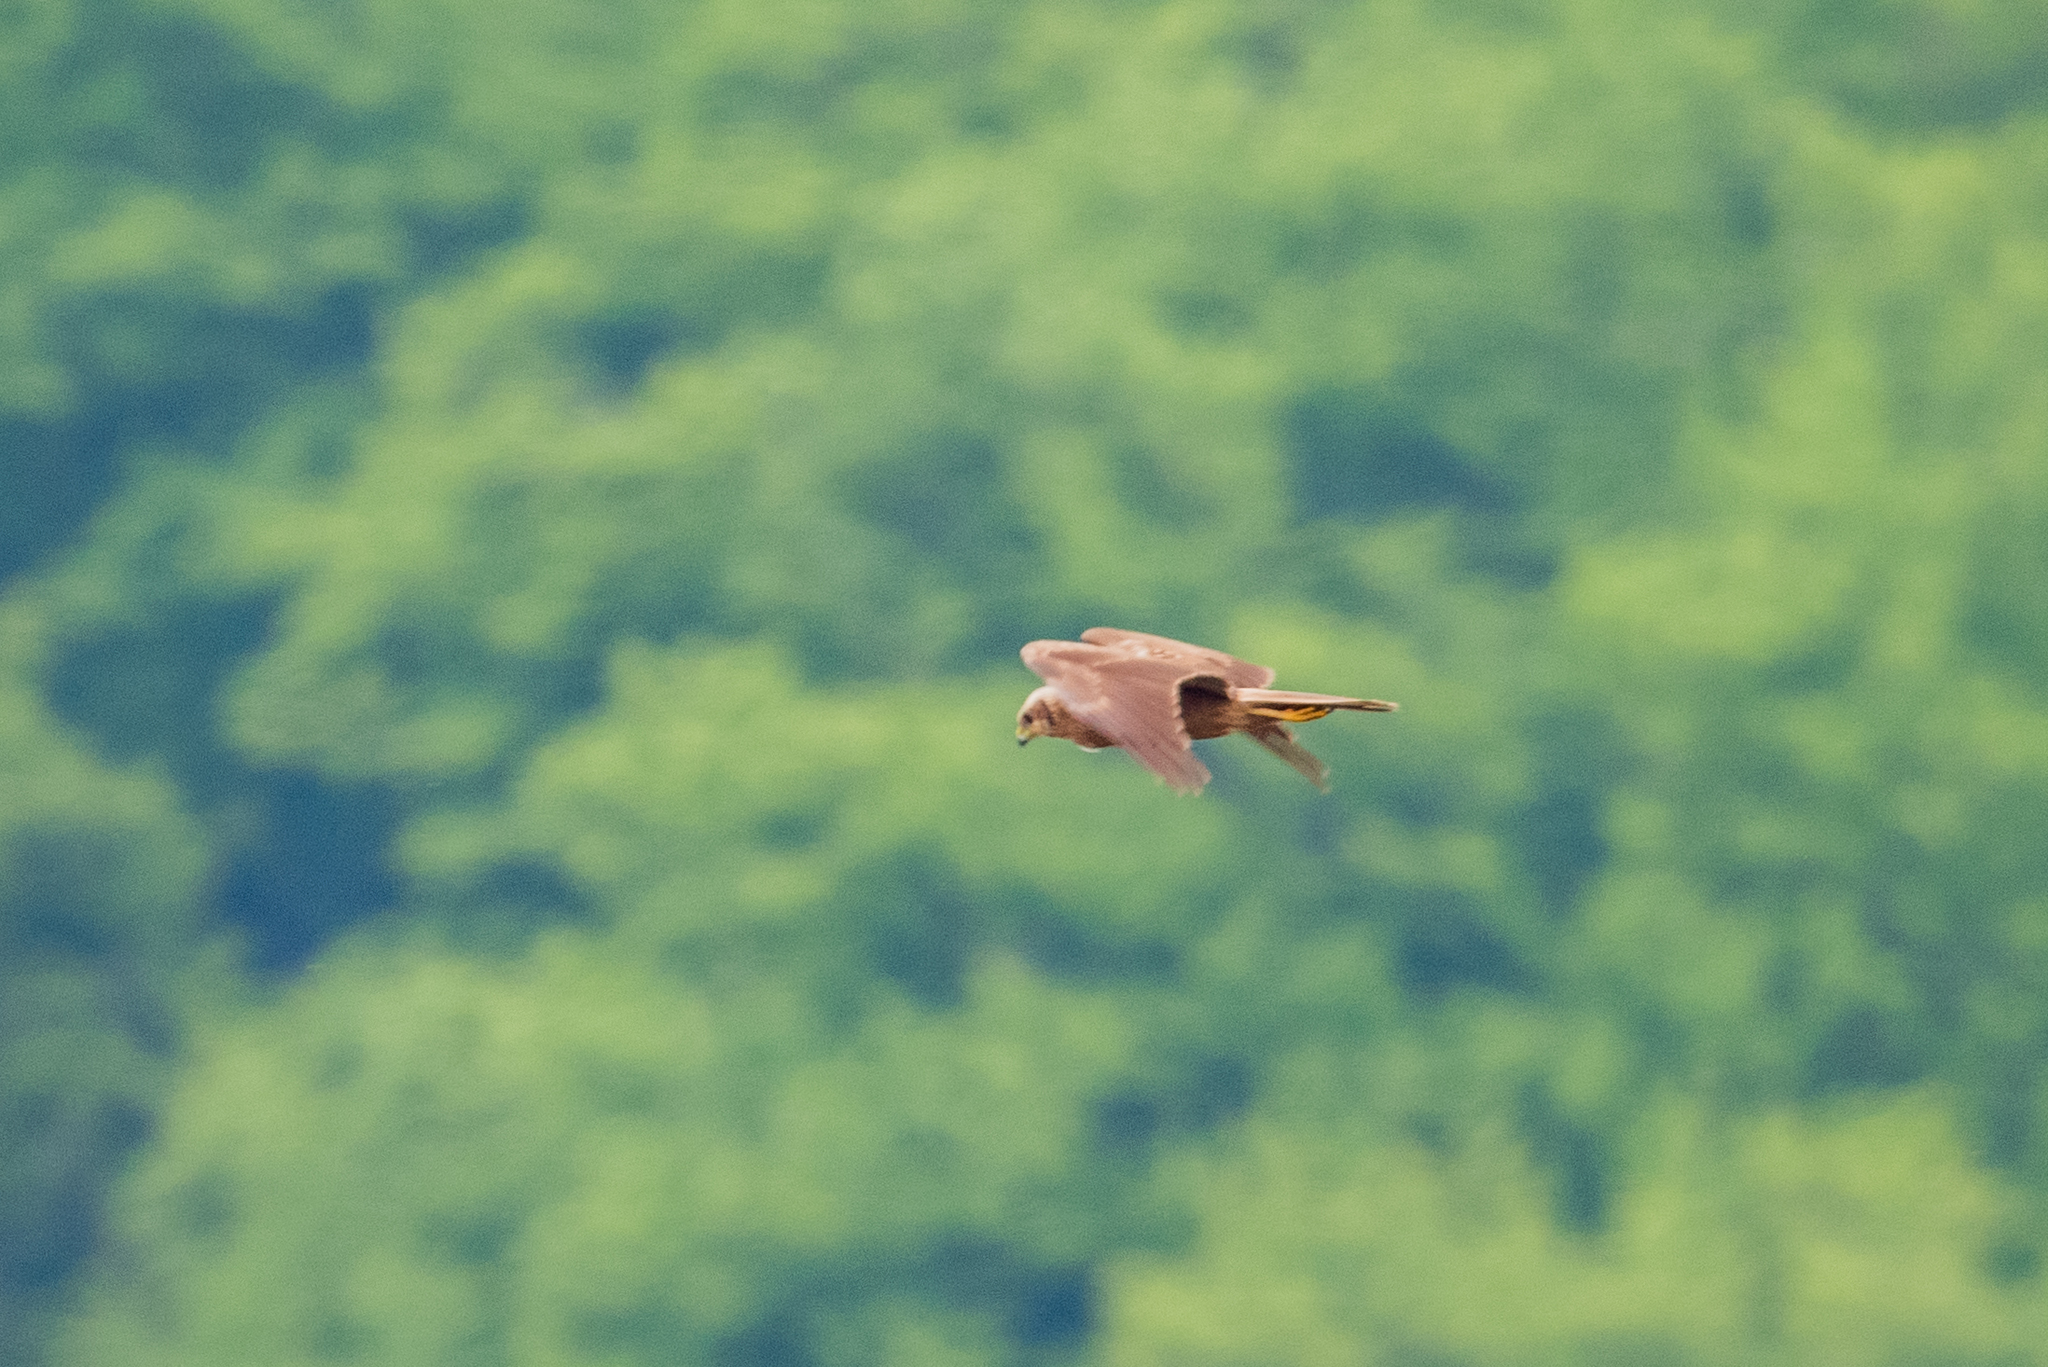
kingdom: Animalia
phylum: Chordata
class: Aves
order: Accipitriformes
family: Accipitridae
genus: Circus
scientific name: Circus aeruginosus
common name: Western marsh harrier
